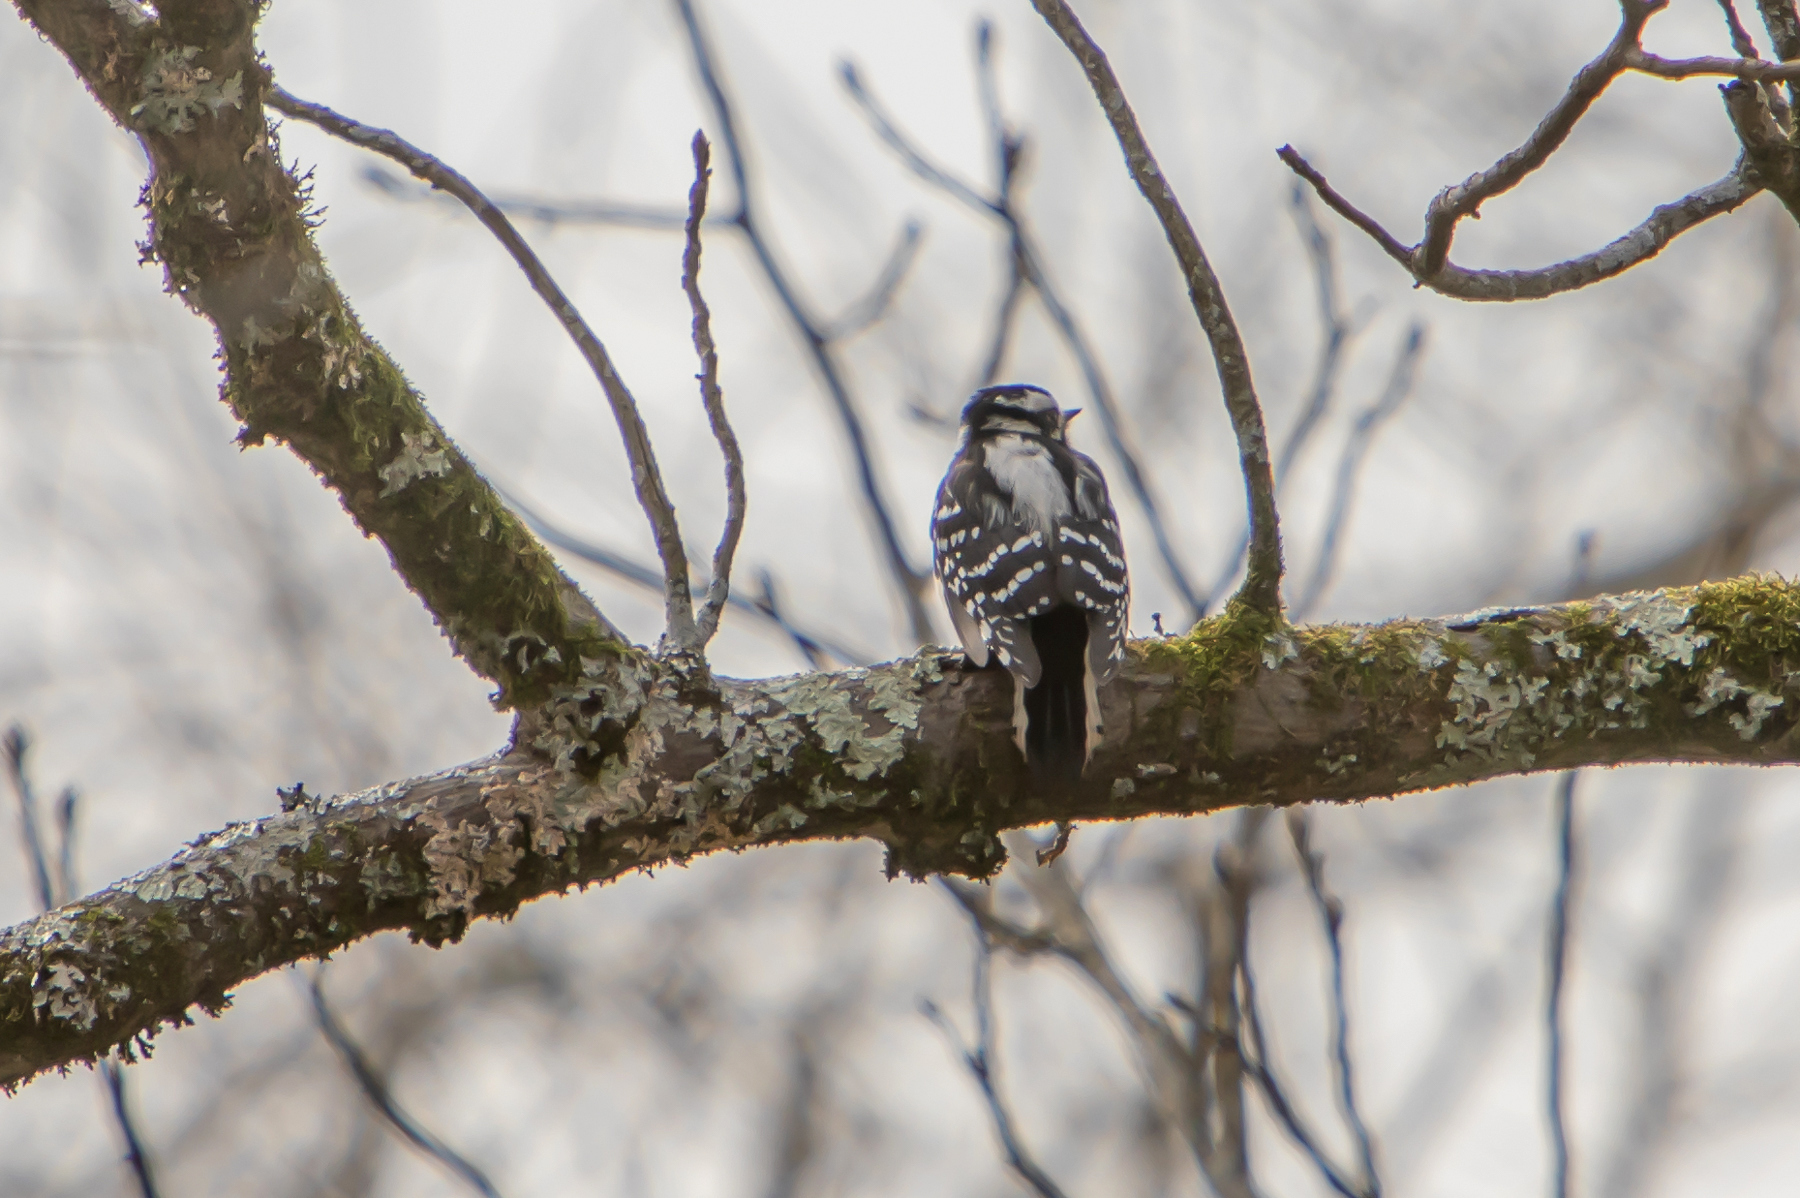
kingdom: Animalia
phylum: Chordata
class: Aves
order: Piciformes
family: Picidae
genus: Dryobates
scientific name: Dryobates pubescens
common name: Downy woodpecker
